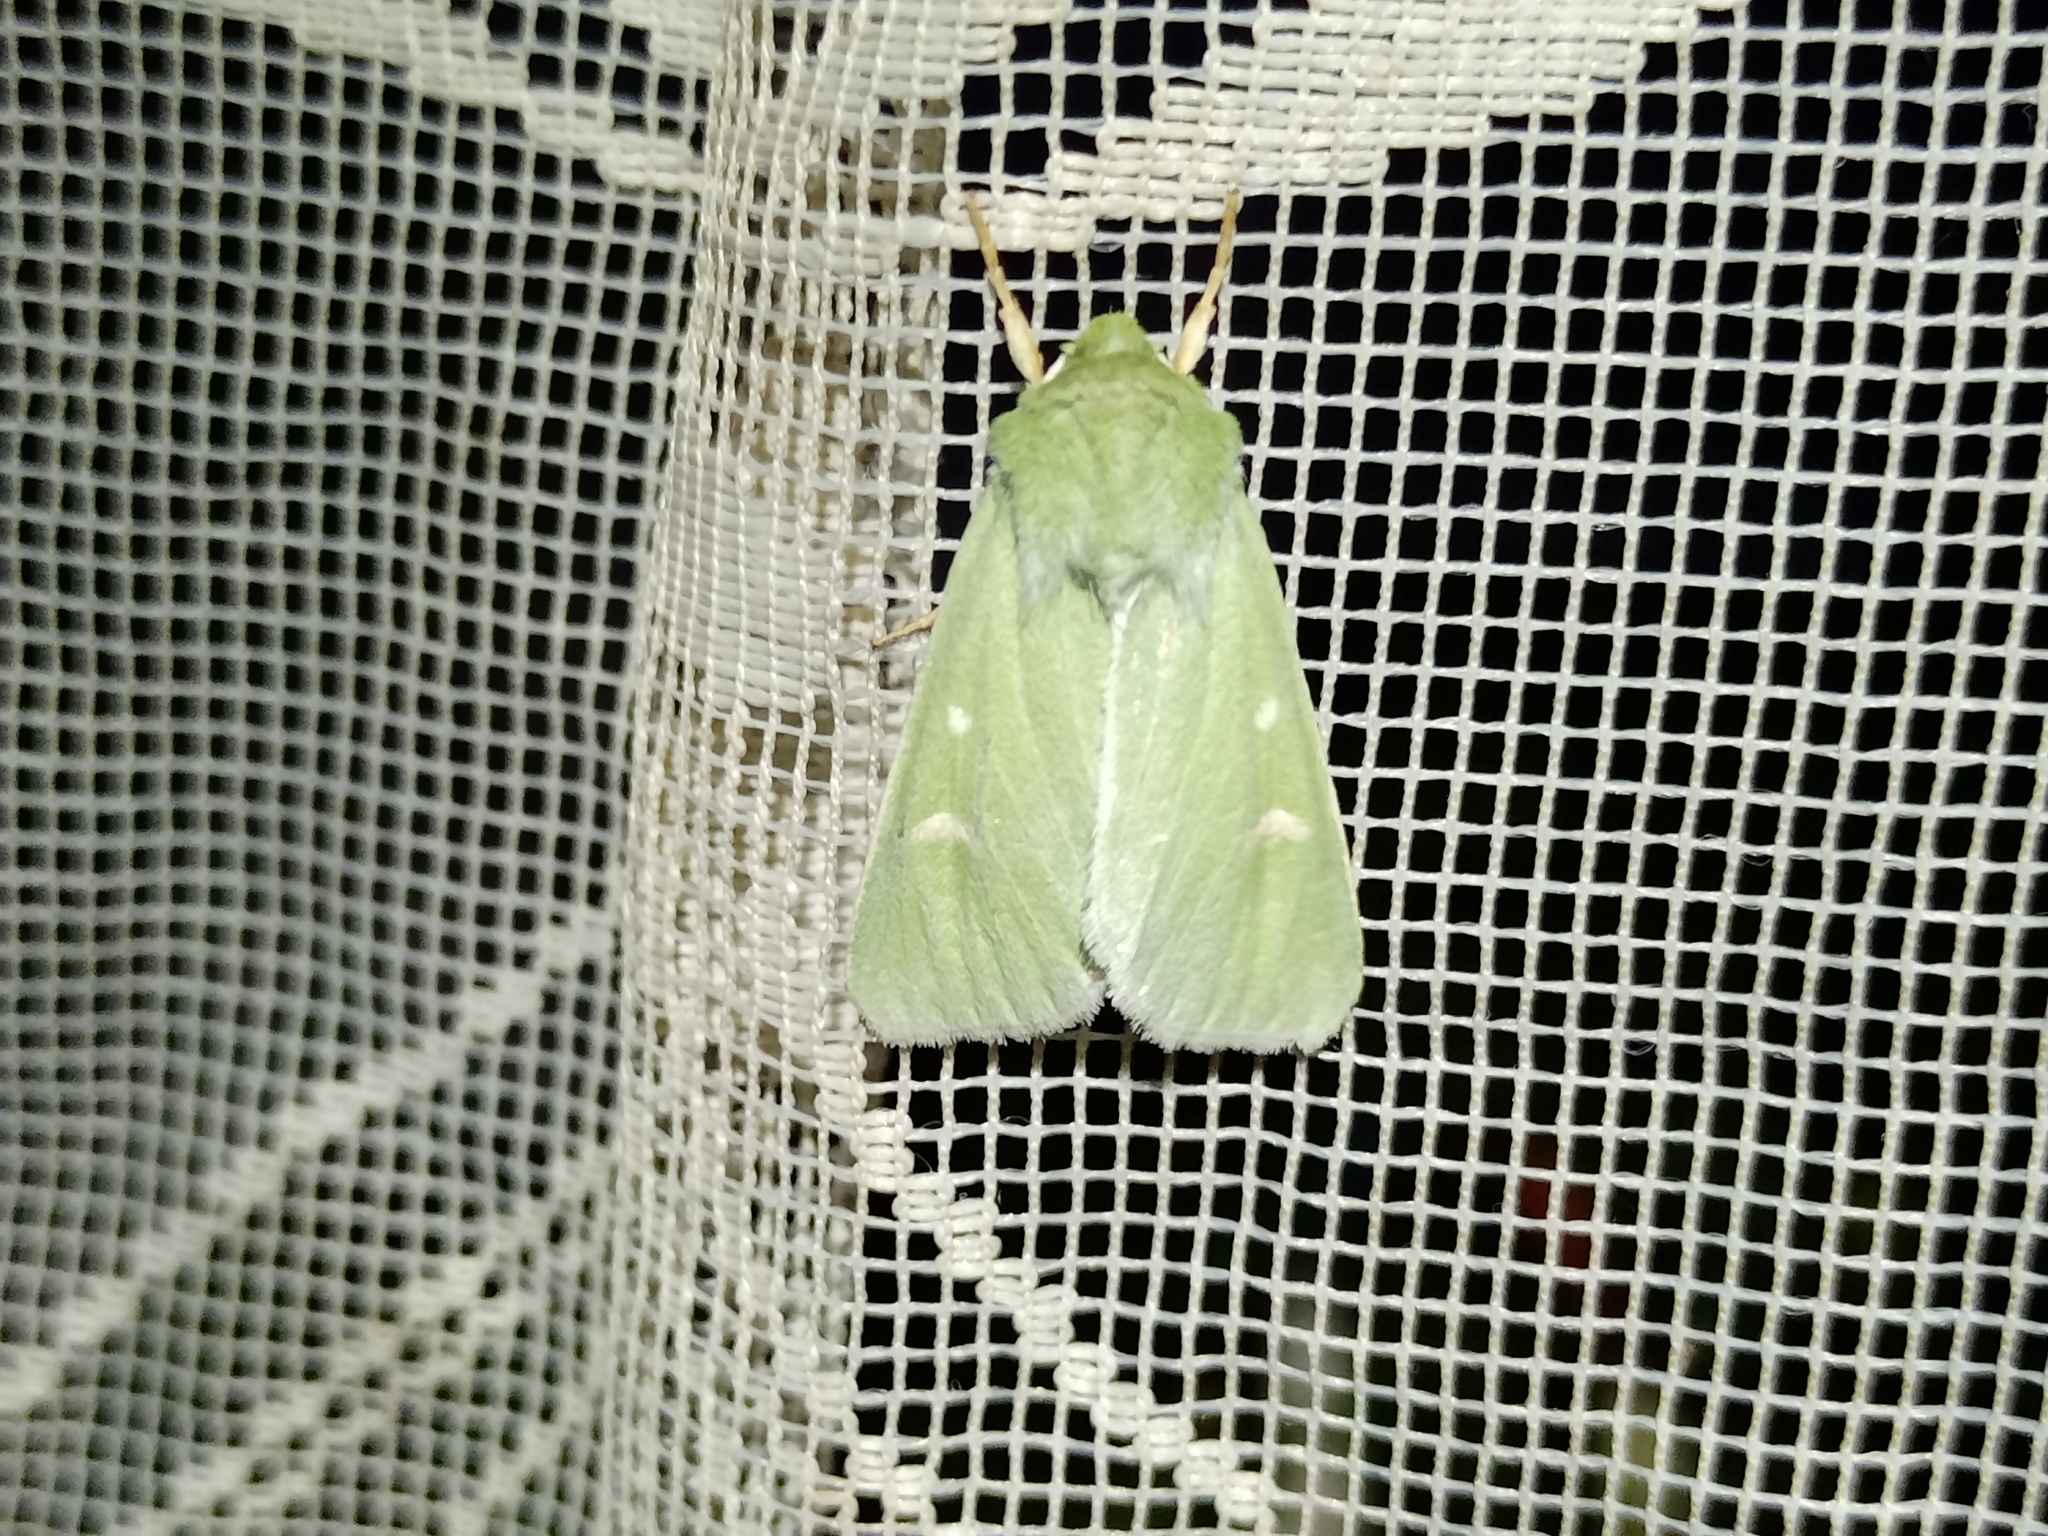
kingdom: Animalia
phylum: Arthropoda
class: Insecta
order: Lepidoptera
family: Noctuidae
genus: Calamia
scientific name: Calamia tridens
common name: Burren green
